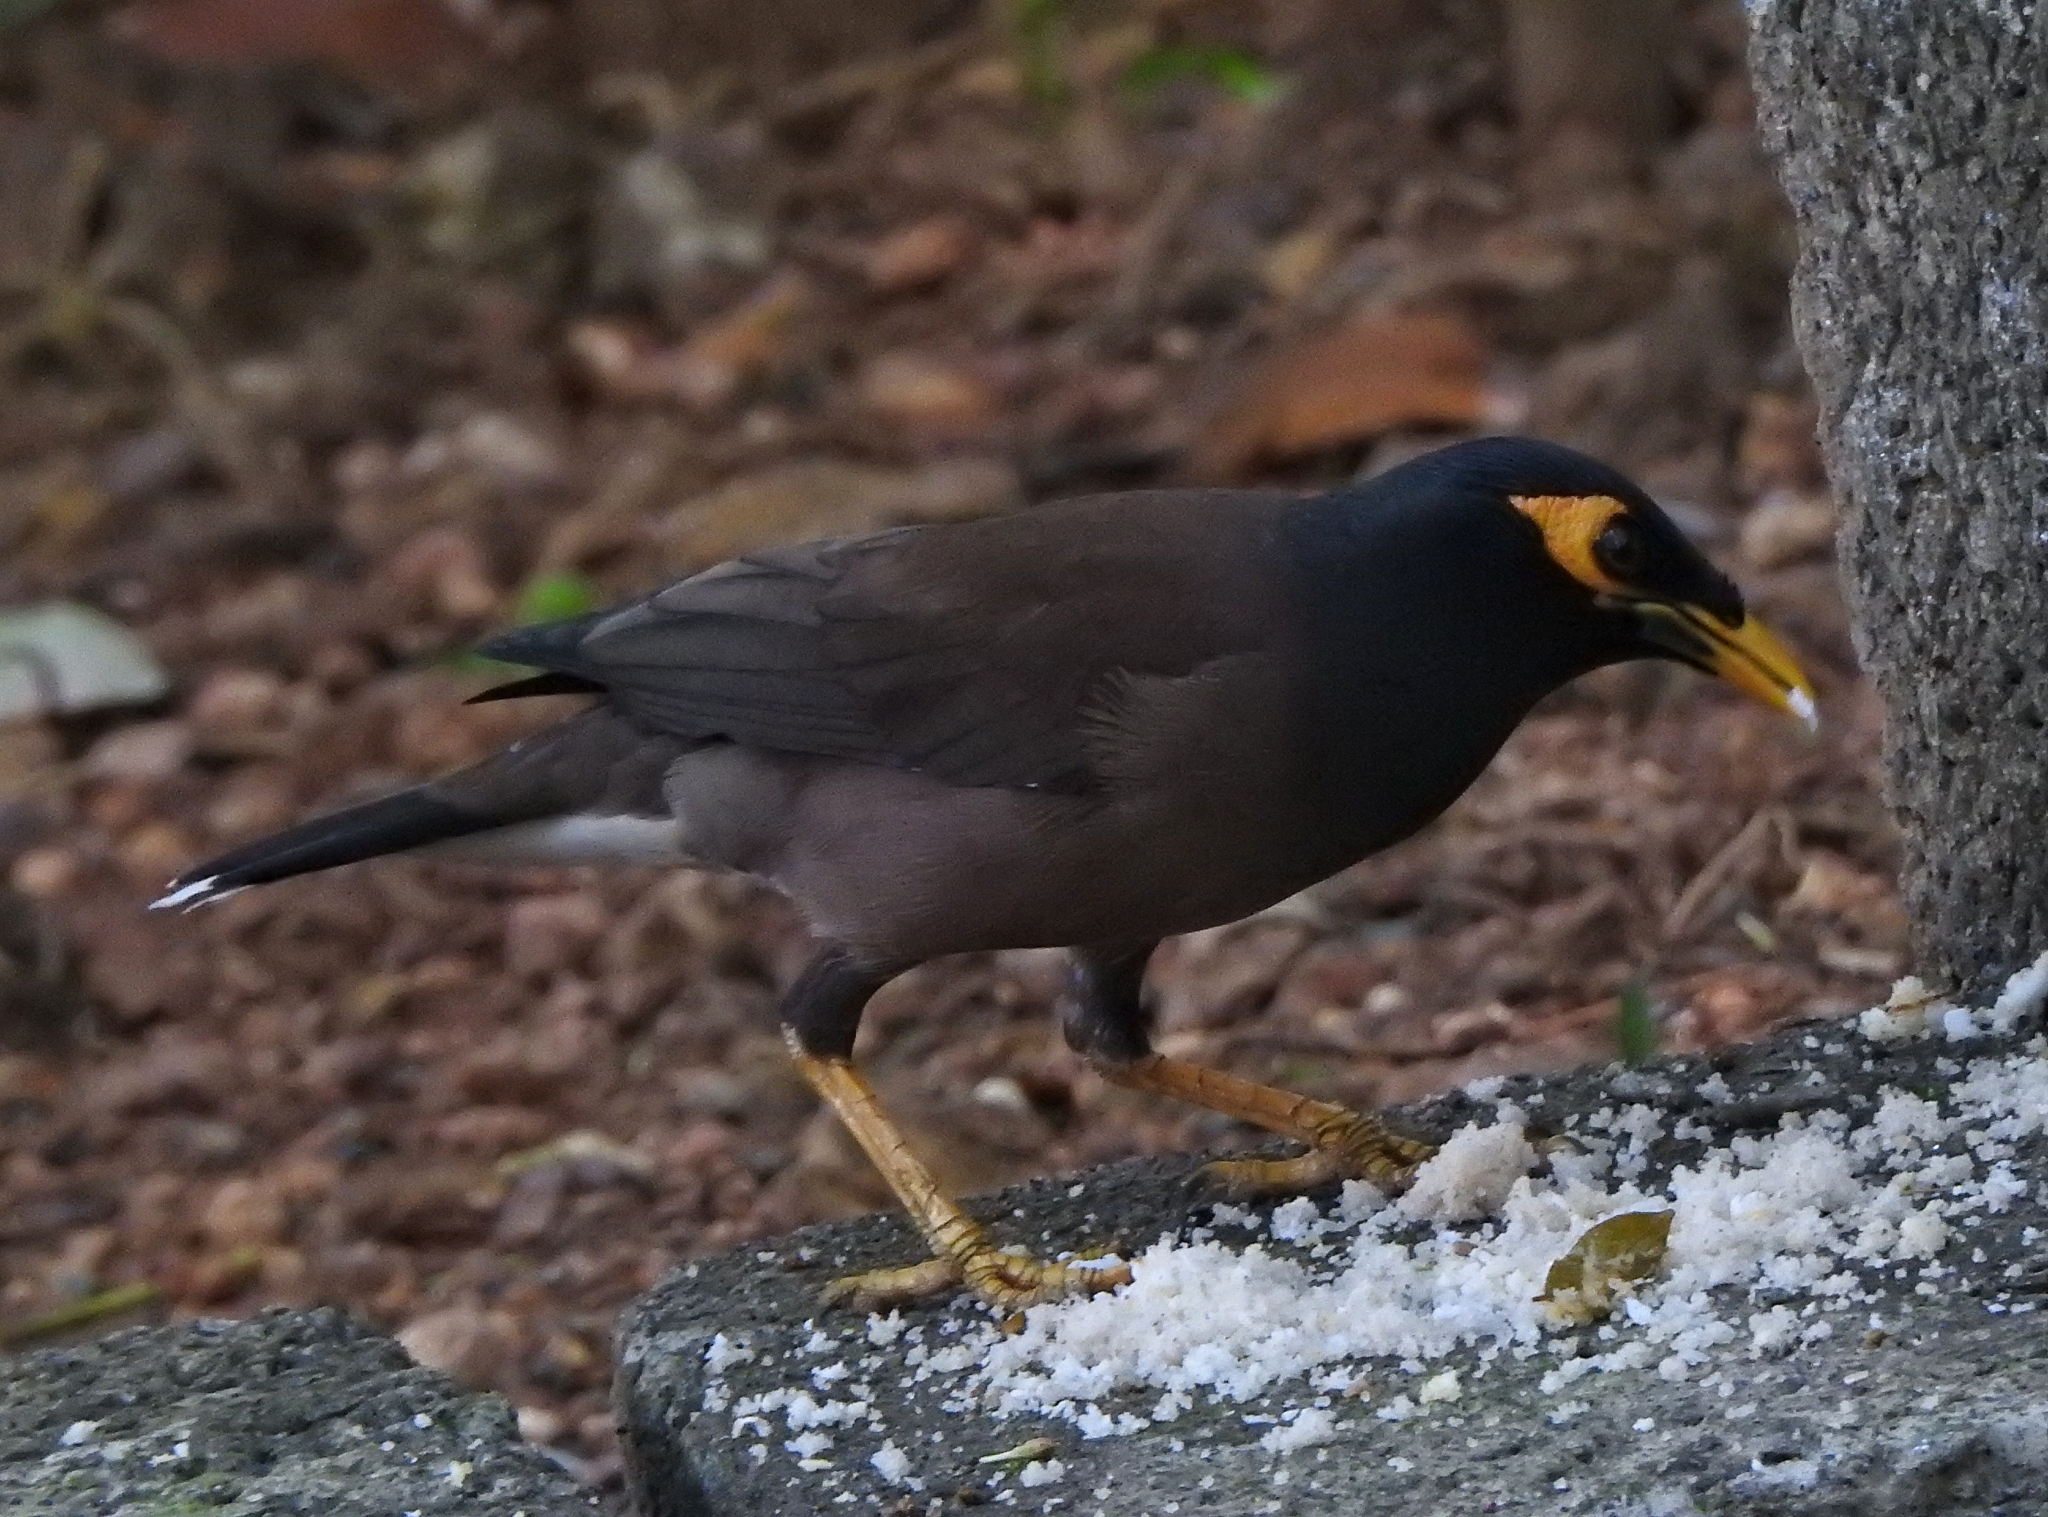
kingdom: Animalia
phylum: Chordata
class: Aves
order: Passeriformes
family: Sturnidae
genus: Acridotheres
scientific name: Acridotheres tristis
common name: Common myna
